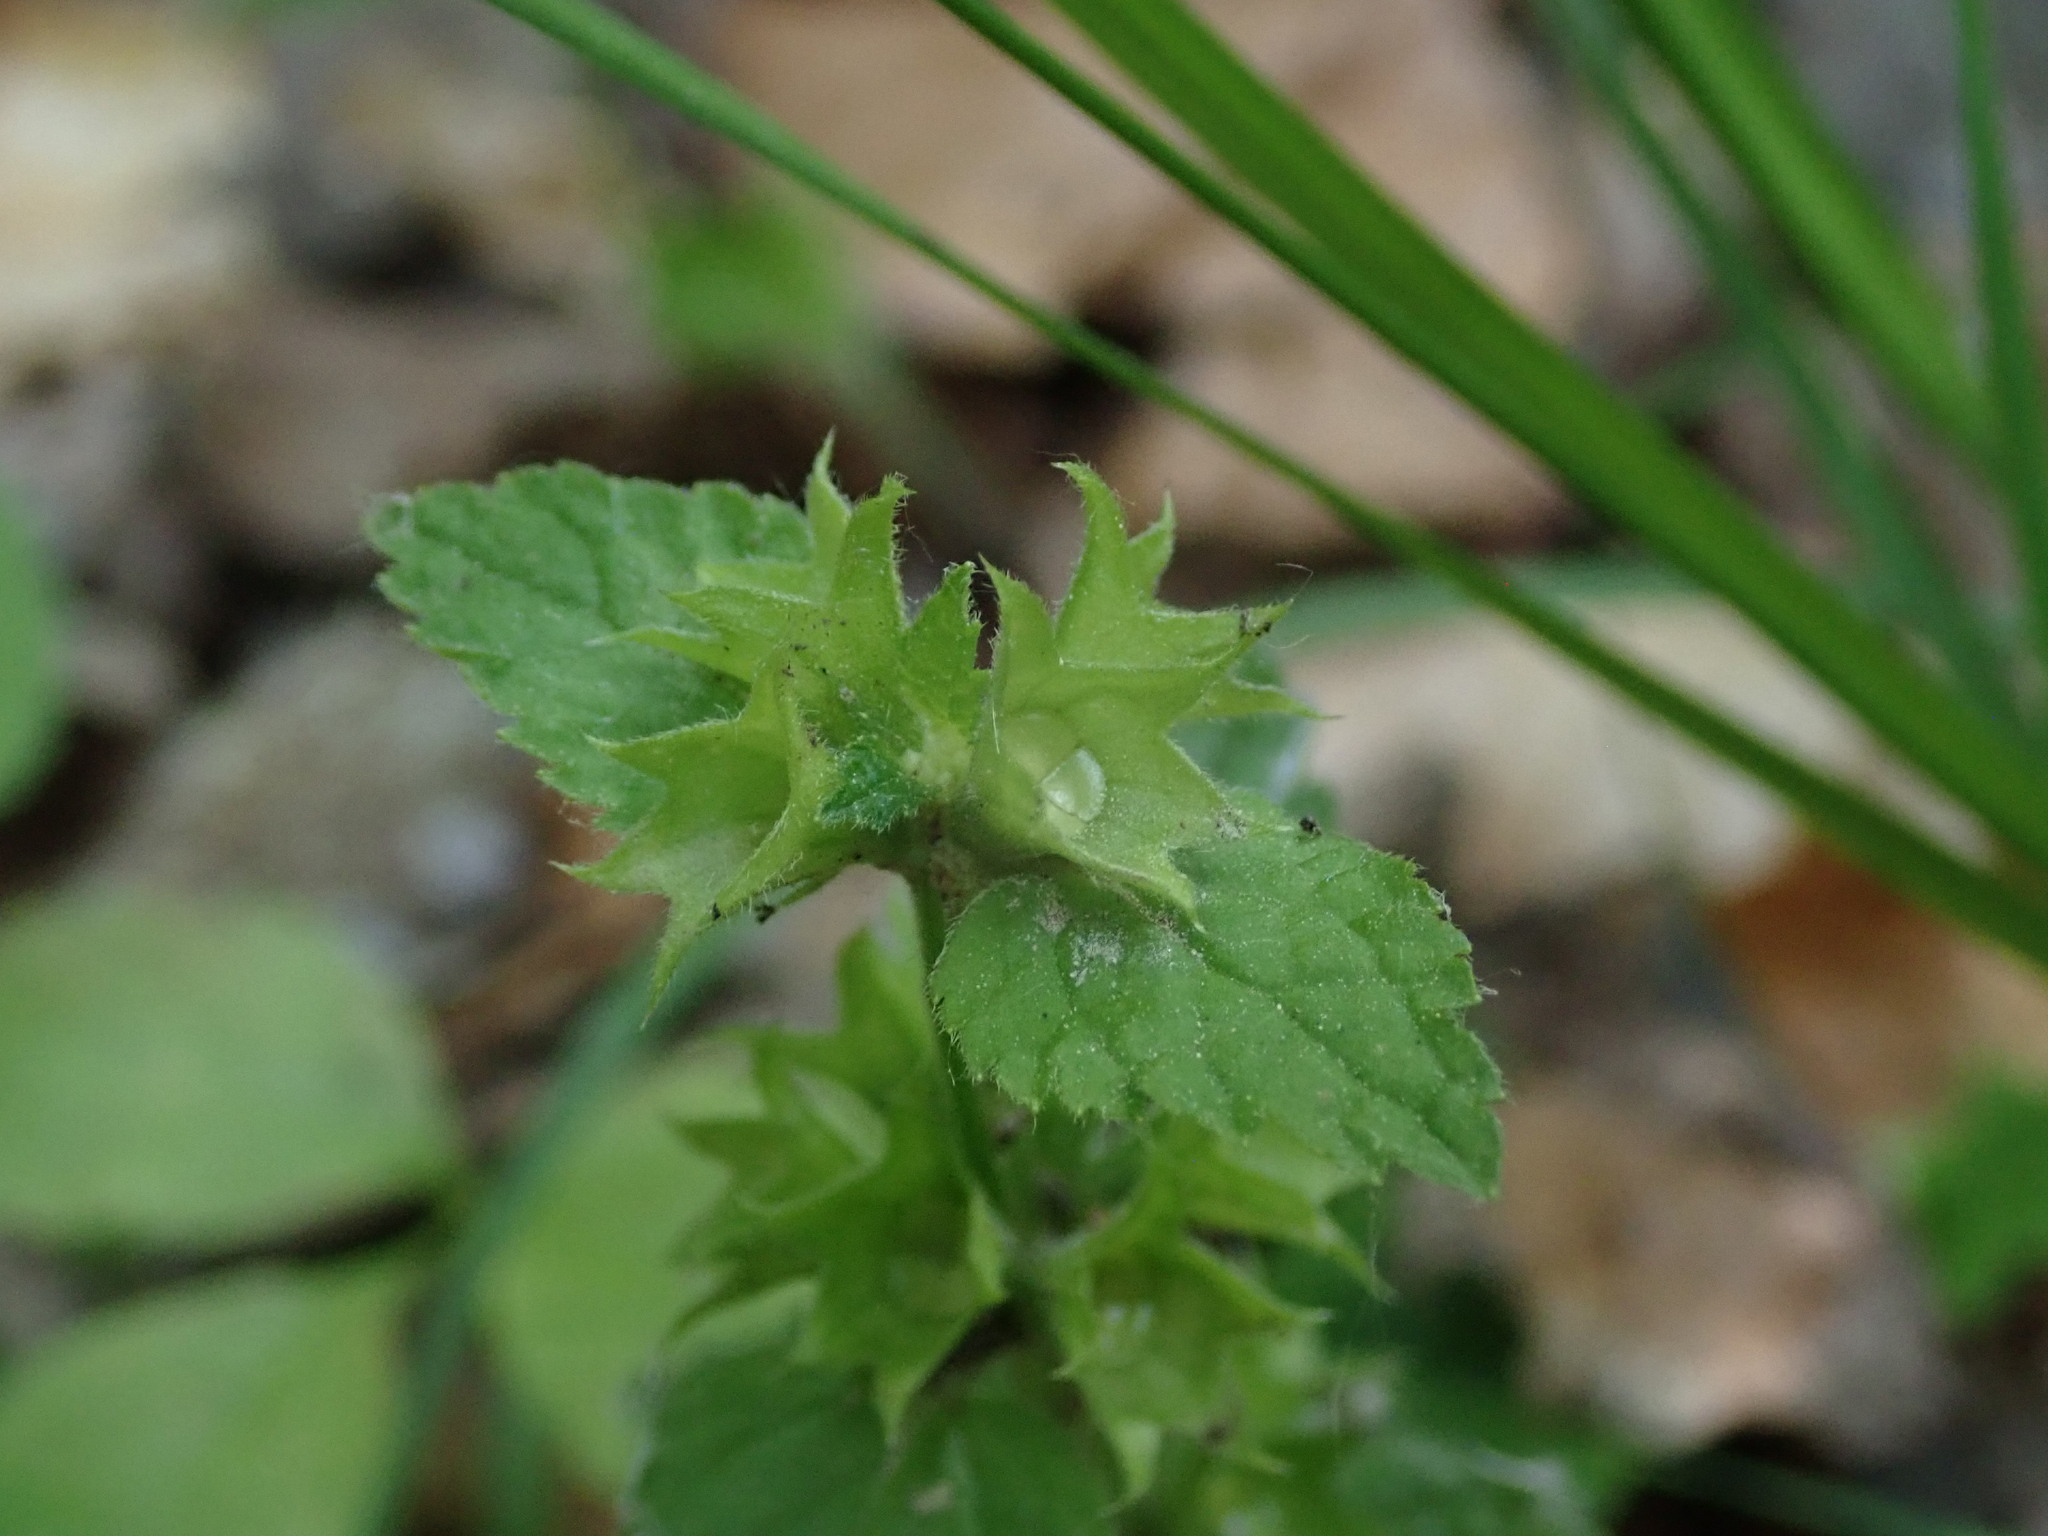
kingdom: Plantae
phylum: Tracheophyta
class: Magnoliopsida
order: Lamiales
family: Lamiaceae
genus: Lamium
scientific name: Lamium galeobdolon
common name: Yellow archangel
